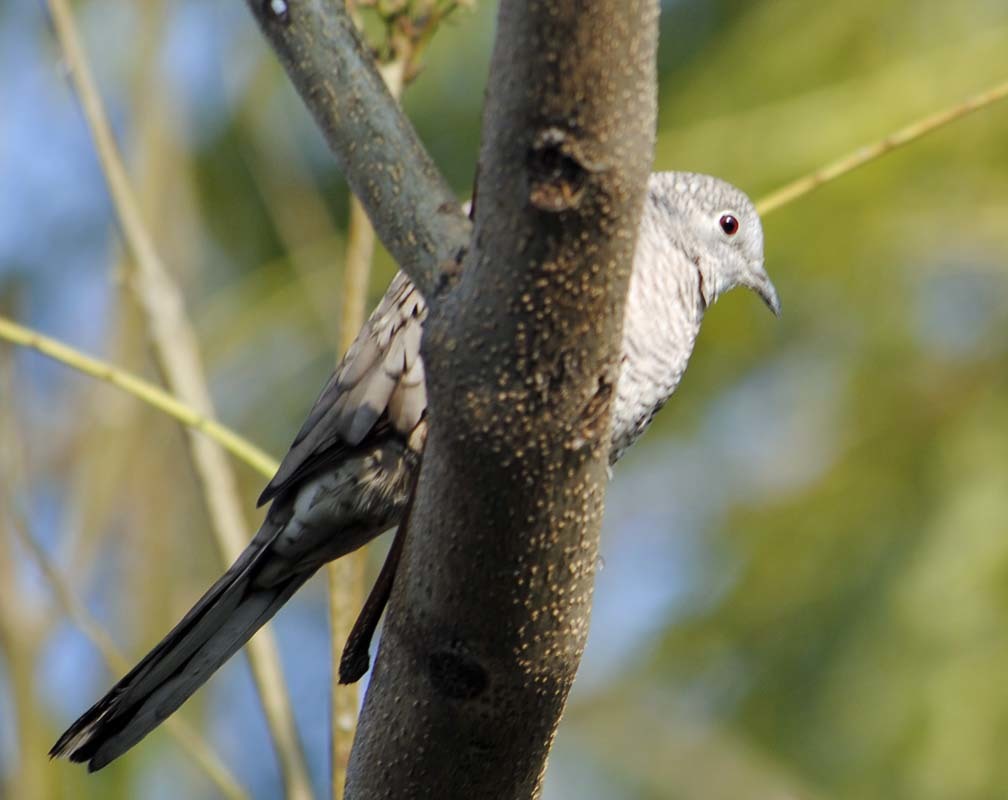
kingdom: Animalia
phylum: Chordata
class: Aves
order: Columbiformes
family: Columbidae
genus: Columbina
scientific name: Columbina inca
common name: Inca dove
